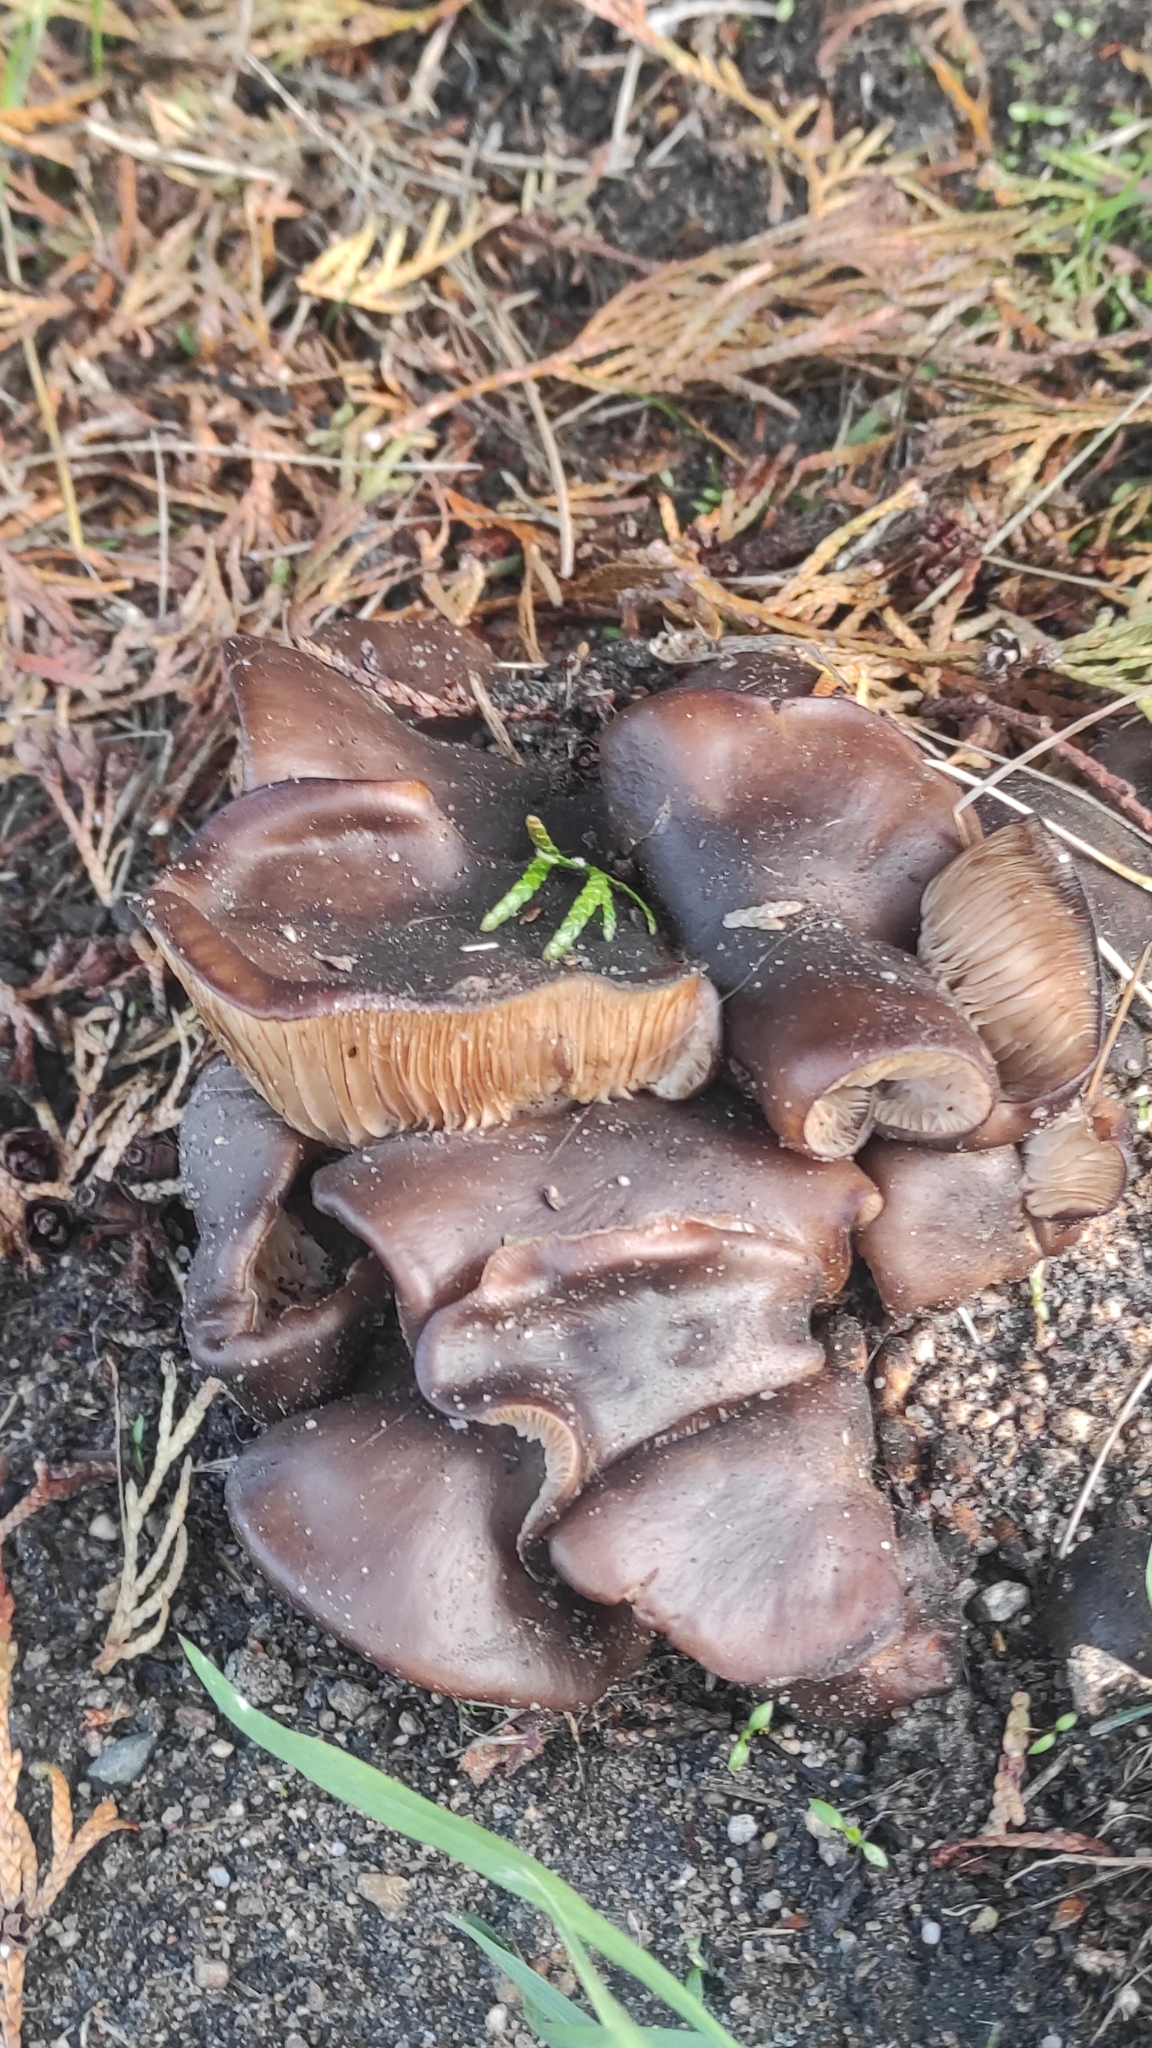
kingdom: Fungi
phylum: Basidiomycota
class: Agaricomycetes
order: Agaricales
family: Lyophyllaceae
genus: Lyophyllum
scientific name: Lyophyllum decastes
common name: Clustered domecap
